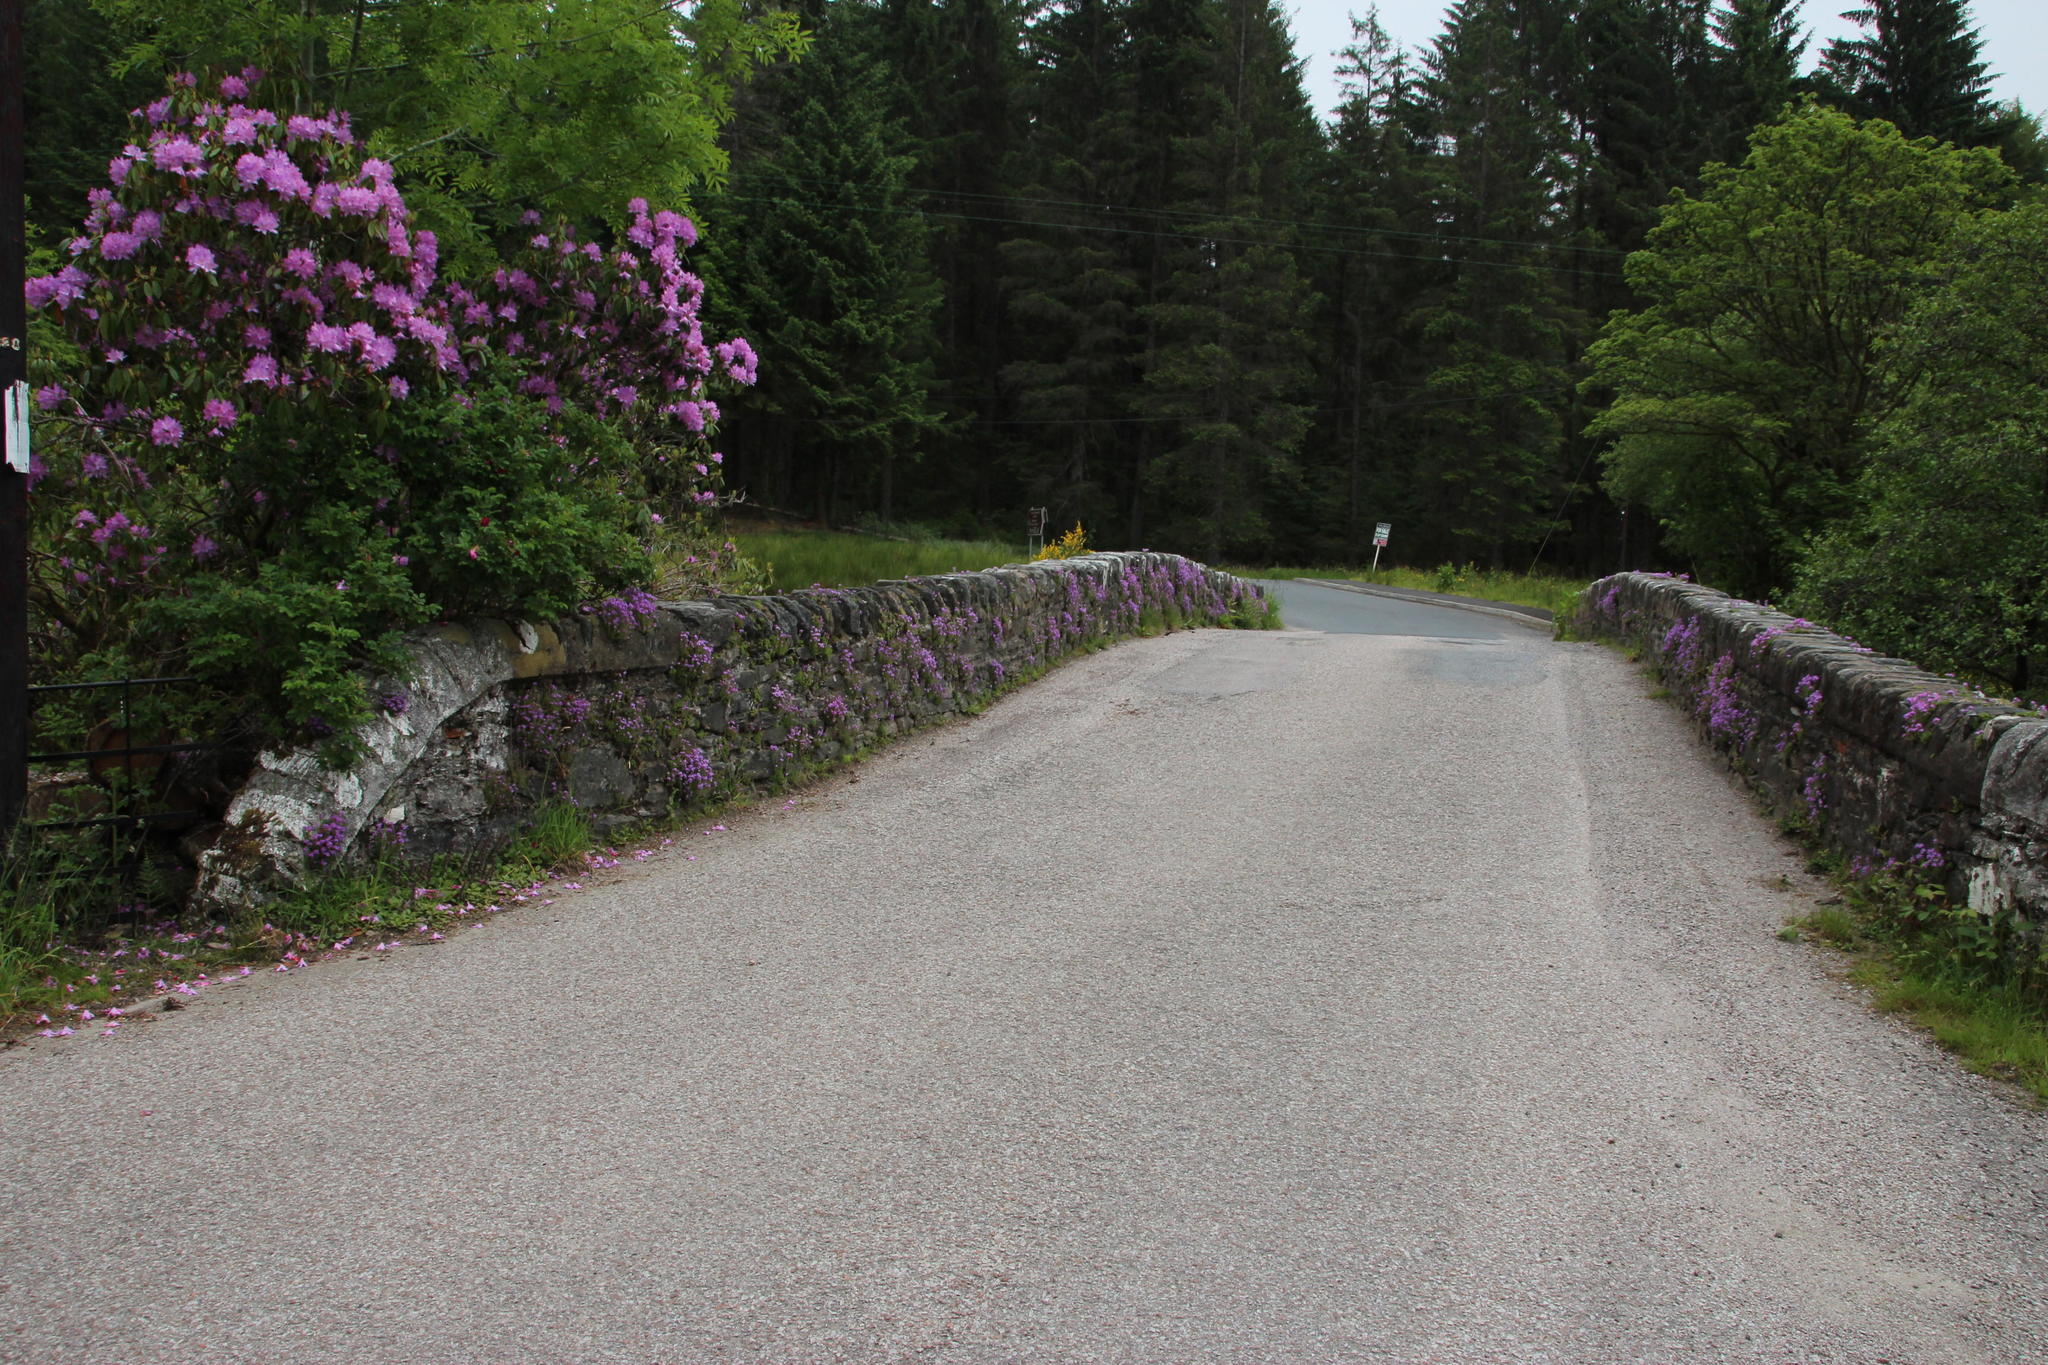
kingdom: Plantae
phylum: Tracheophyta
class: Magnoliopsida
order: Lamiales
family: Plantaginaceae
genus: Erinus
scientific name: Erinus alpinus
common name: Fairy foxglove
